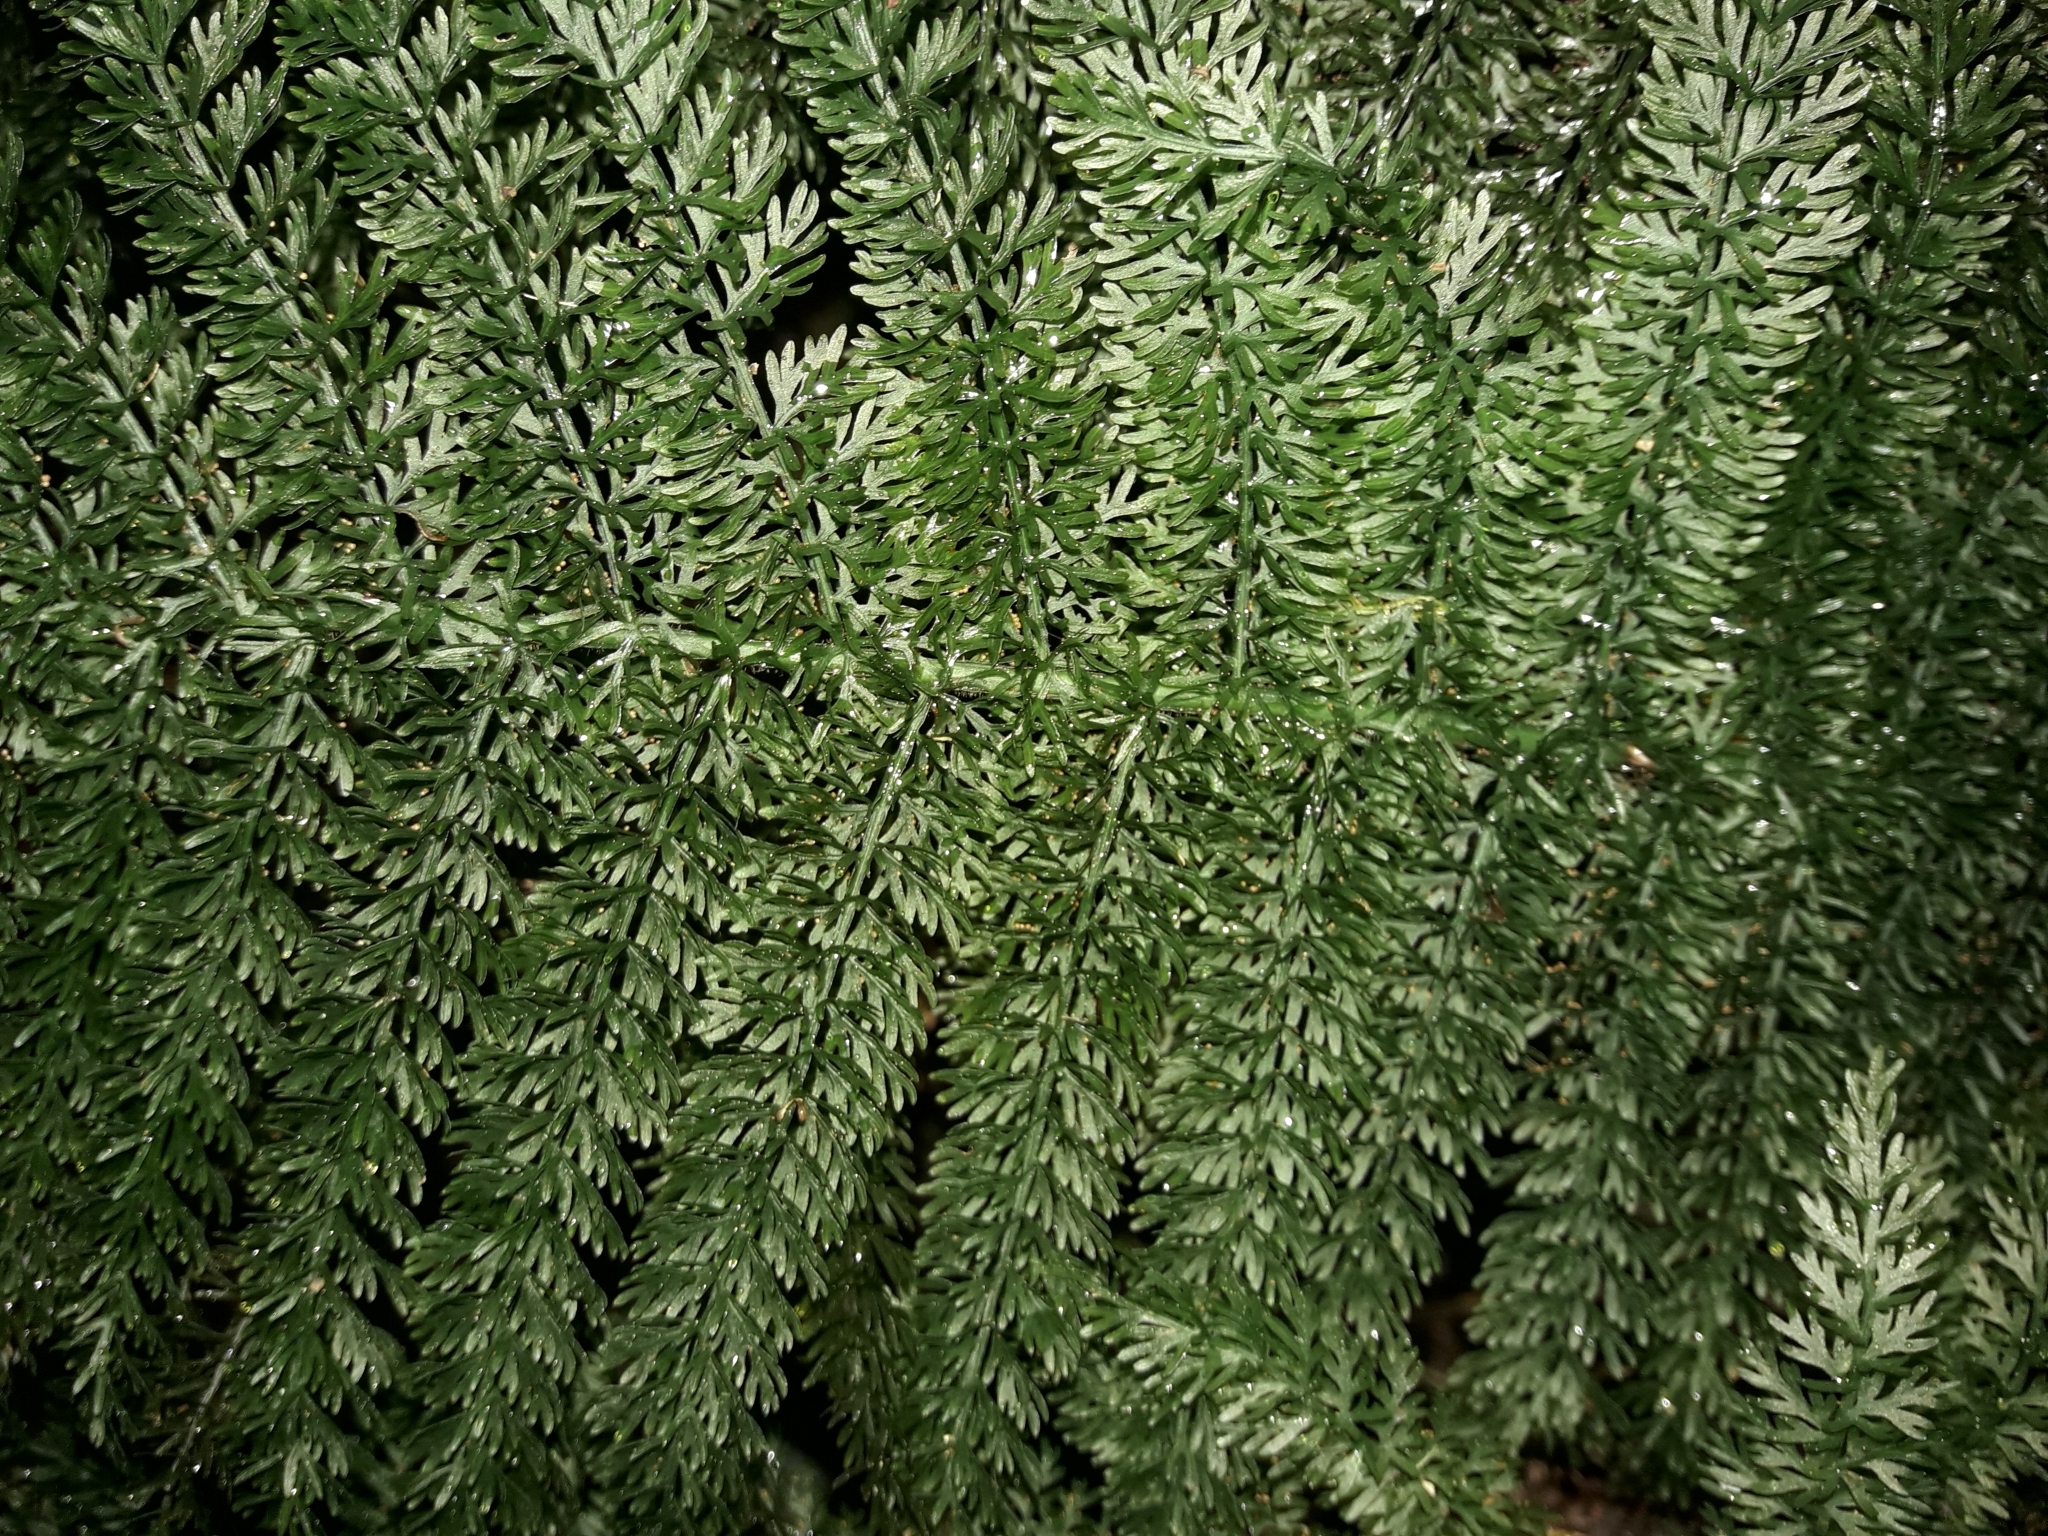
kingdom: Plantae
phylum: Tracheophyta
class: Polypodiopsida
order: Osmundales
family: Osmundaceae
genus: Leptopteris
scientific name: Leptopteris superba
